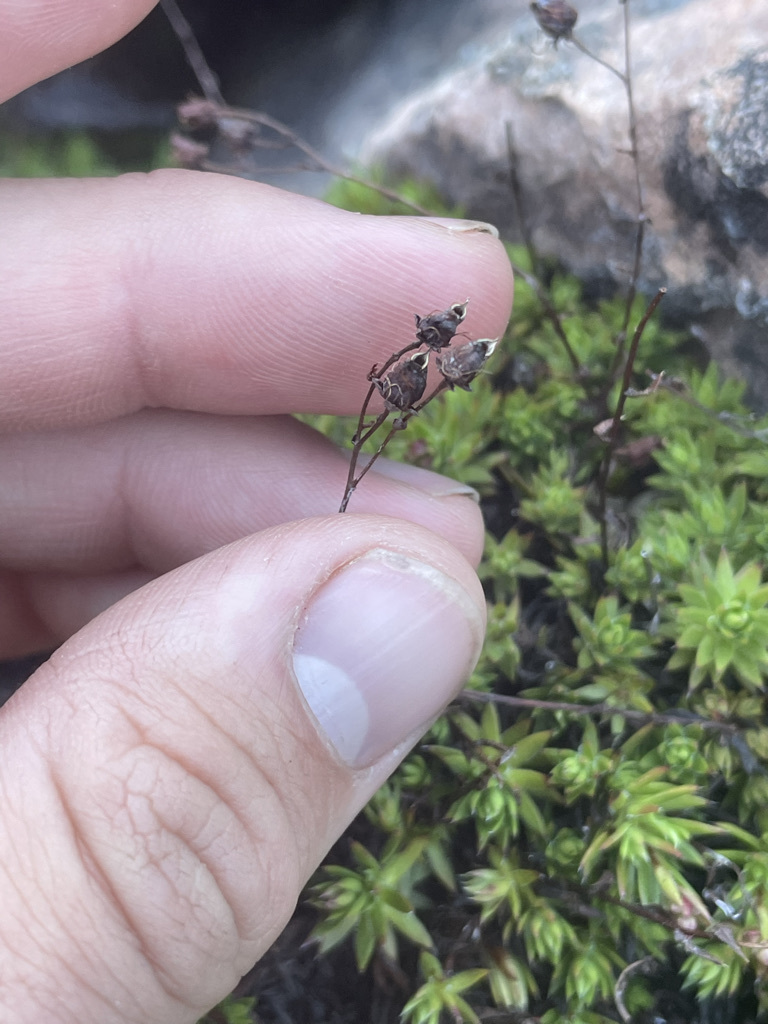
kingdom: Plantae
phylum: Tracheophyta
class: Magnoliopsida
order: Saxifragales
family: Saxifragaceae
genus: Saxifraga
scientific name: Saxifraga bronchialis
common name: Matted saxifrage
